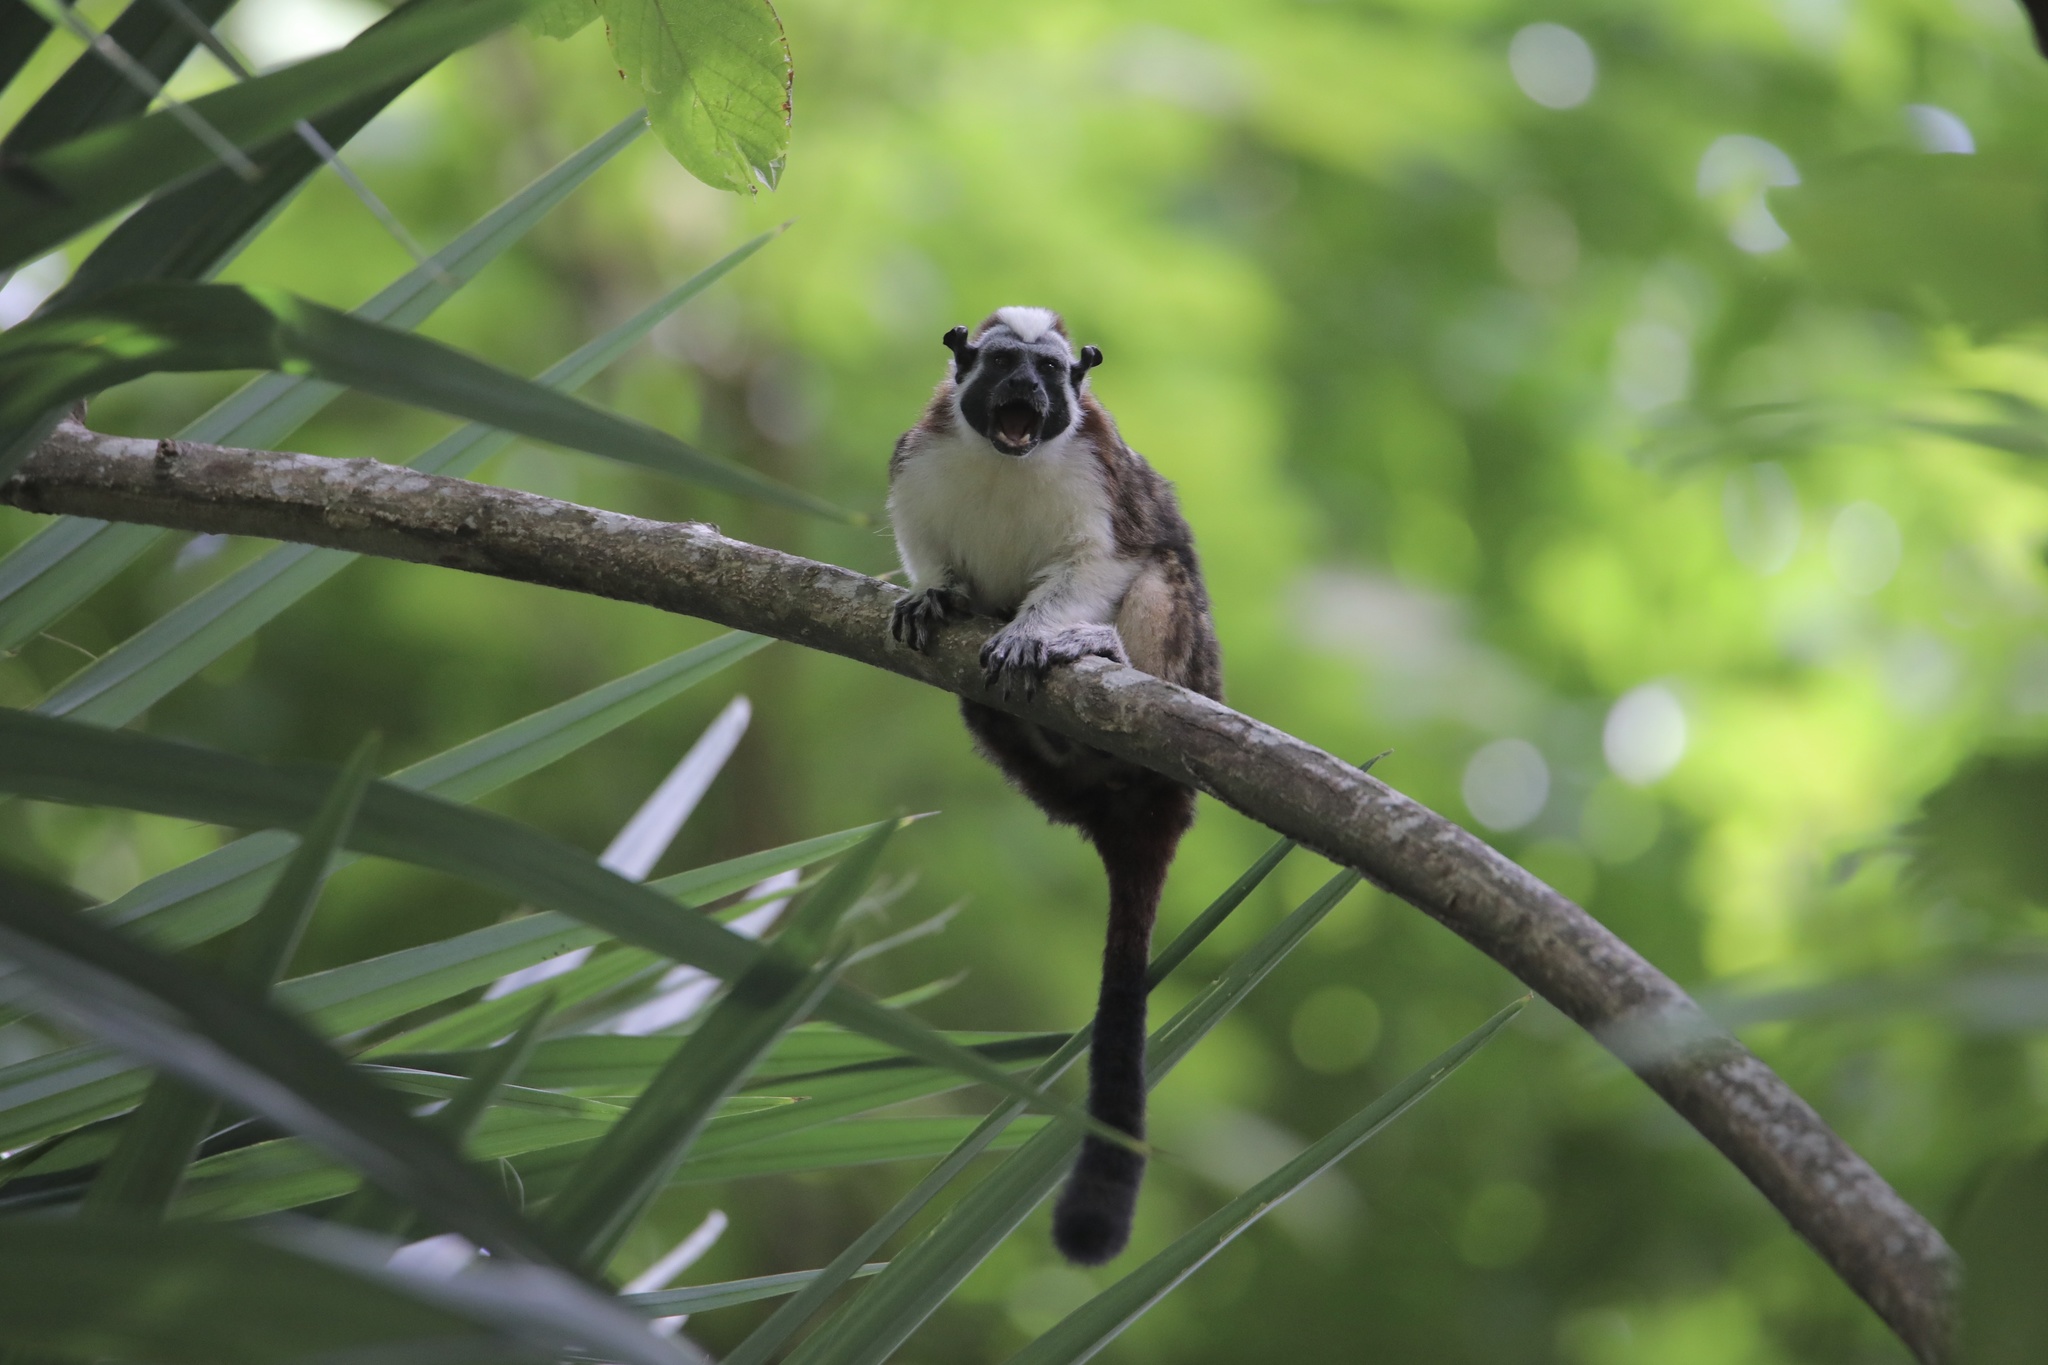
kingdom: Animalia
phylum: Chordata
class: Mammalia
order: Primates
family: Callitrichidae
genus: Saguinus
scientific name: Saguinus geoffroyi
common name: Geoffroy s tamarin
